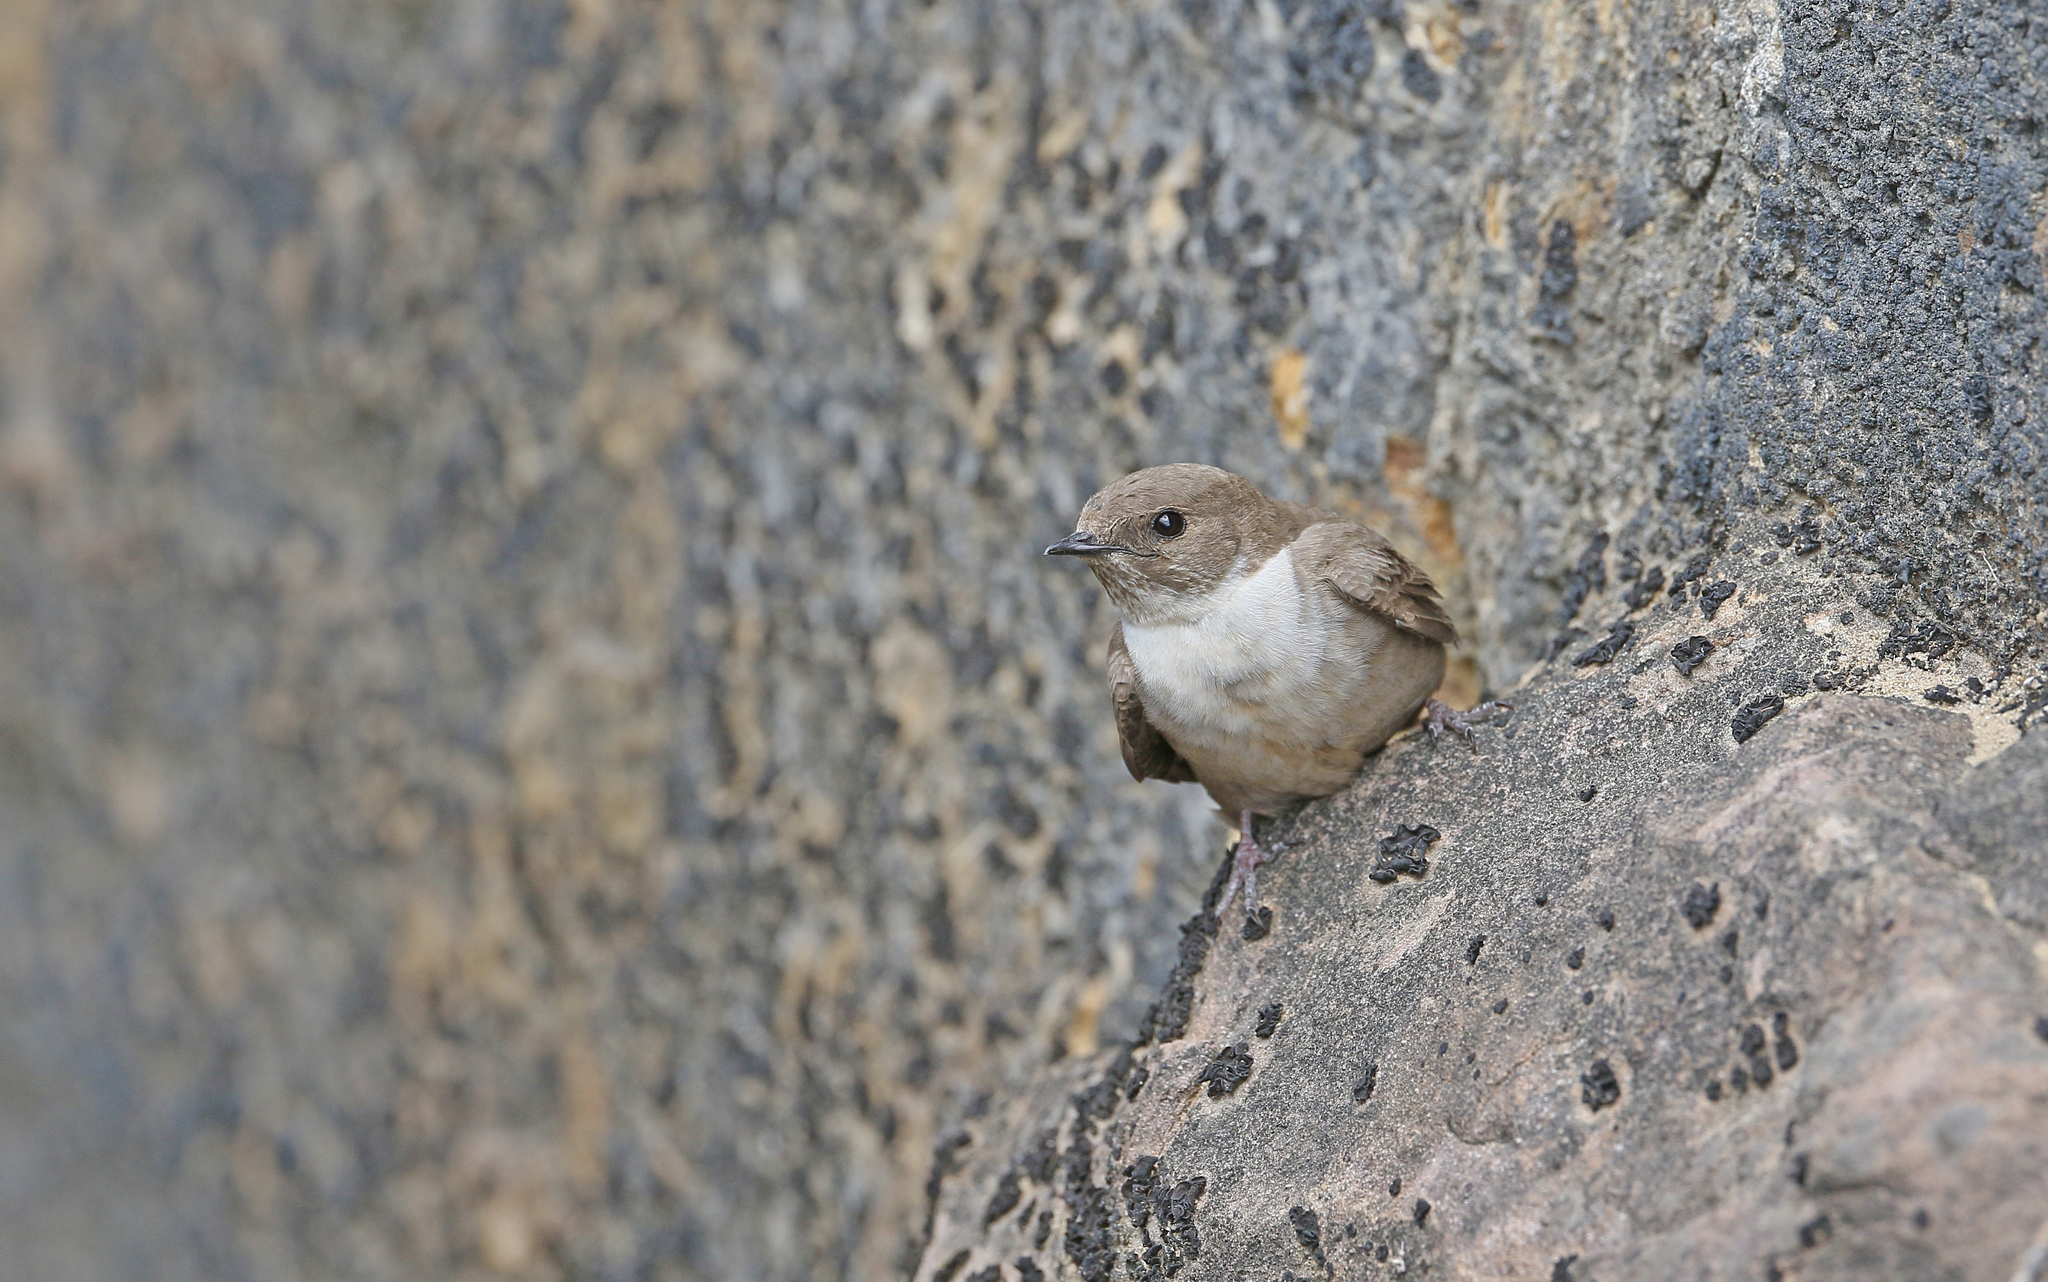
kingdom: Animalia
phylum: Chordata
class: Aves
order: Passeriformes
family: Hirundinidae
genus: Ptyonoprogne
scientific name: Ptyonoprogne rupestris
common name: Eurasian crag martin
